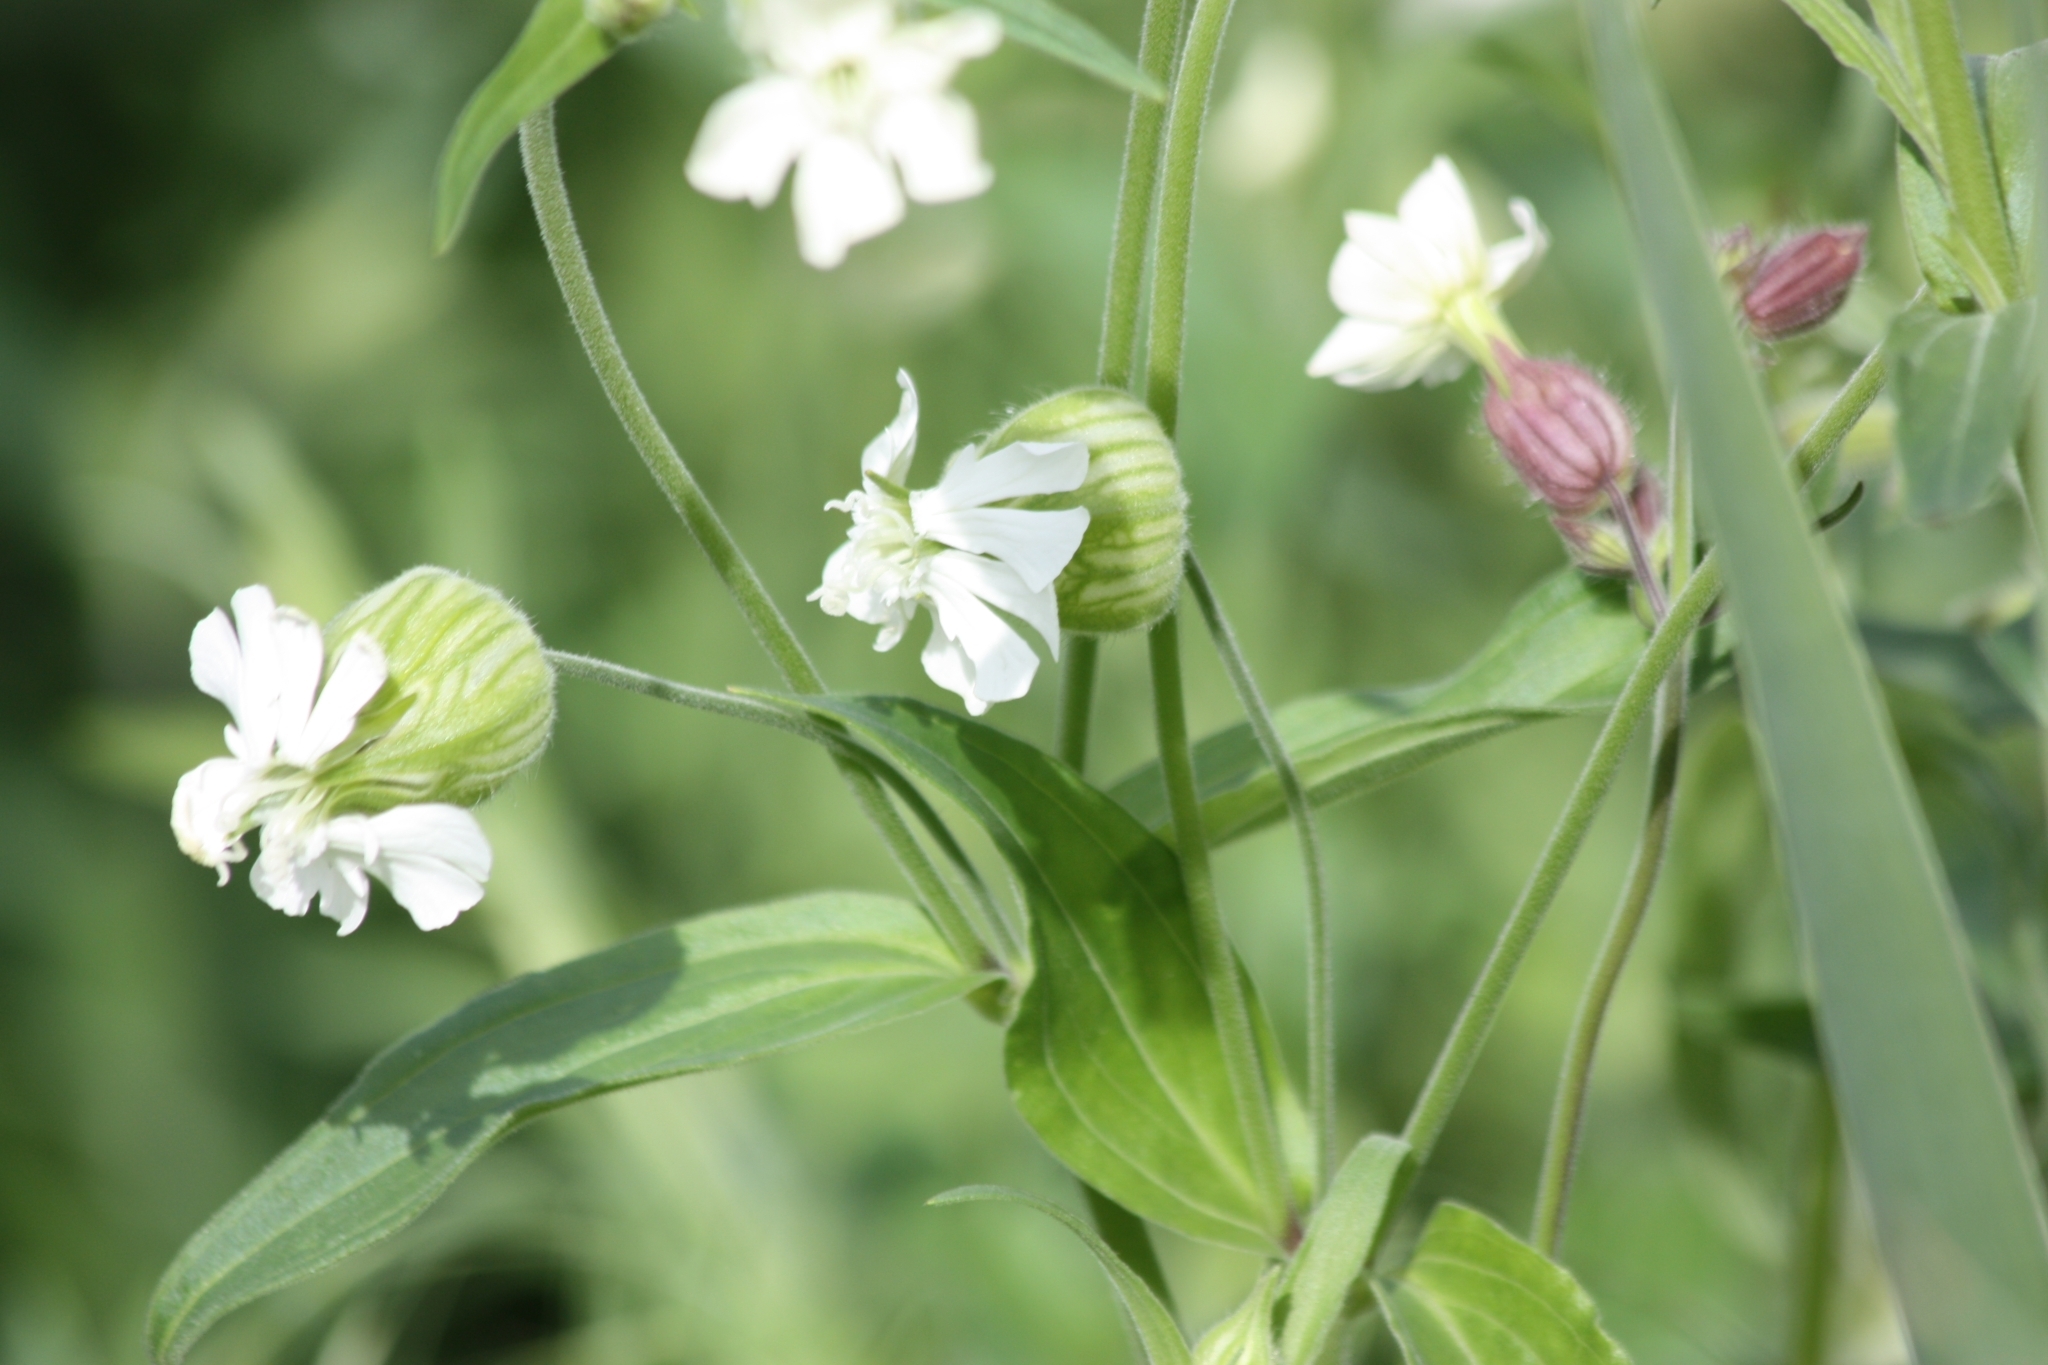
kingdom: Plantae
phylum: Tracheophyta
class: Magnoliopsida
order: Caryophyllales
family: Caryophyllaceae
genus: Silene
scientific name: Silene latifolia
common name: White campion
